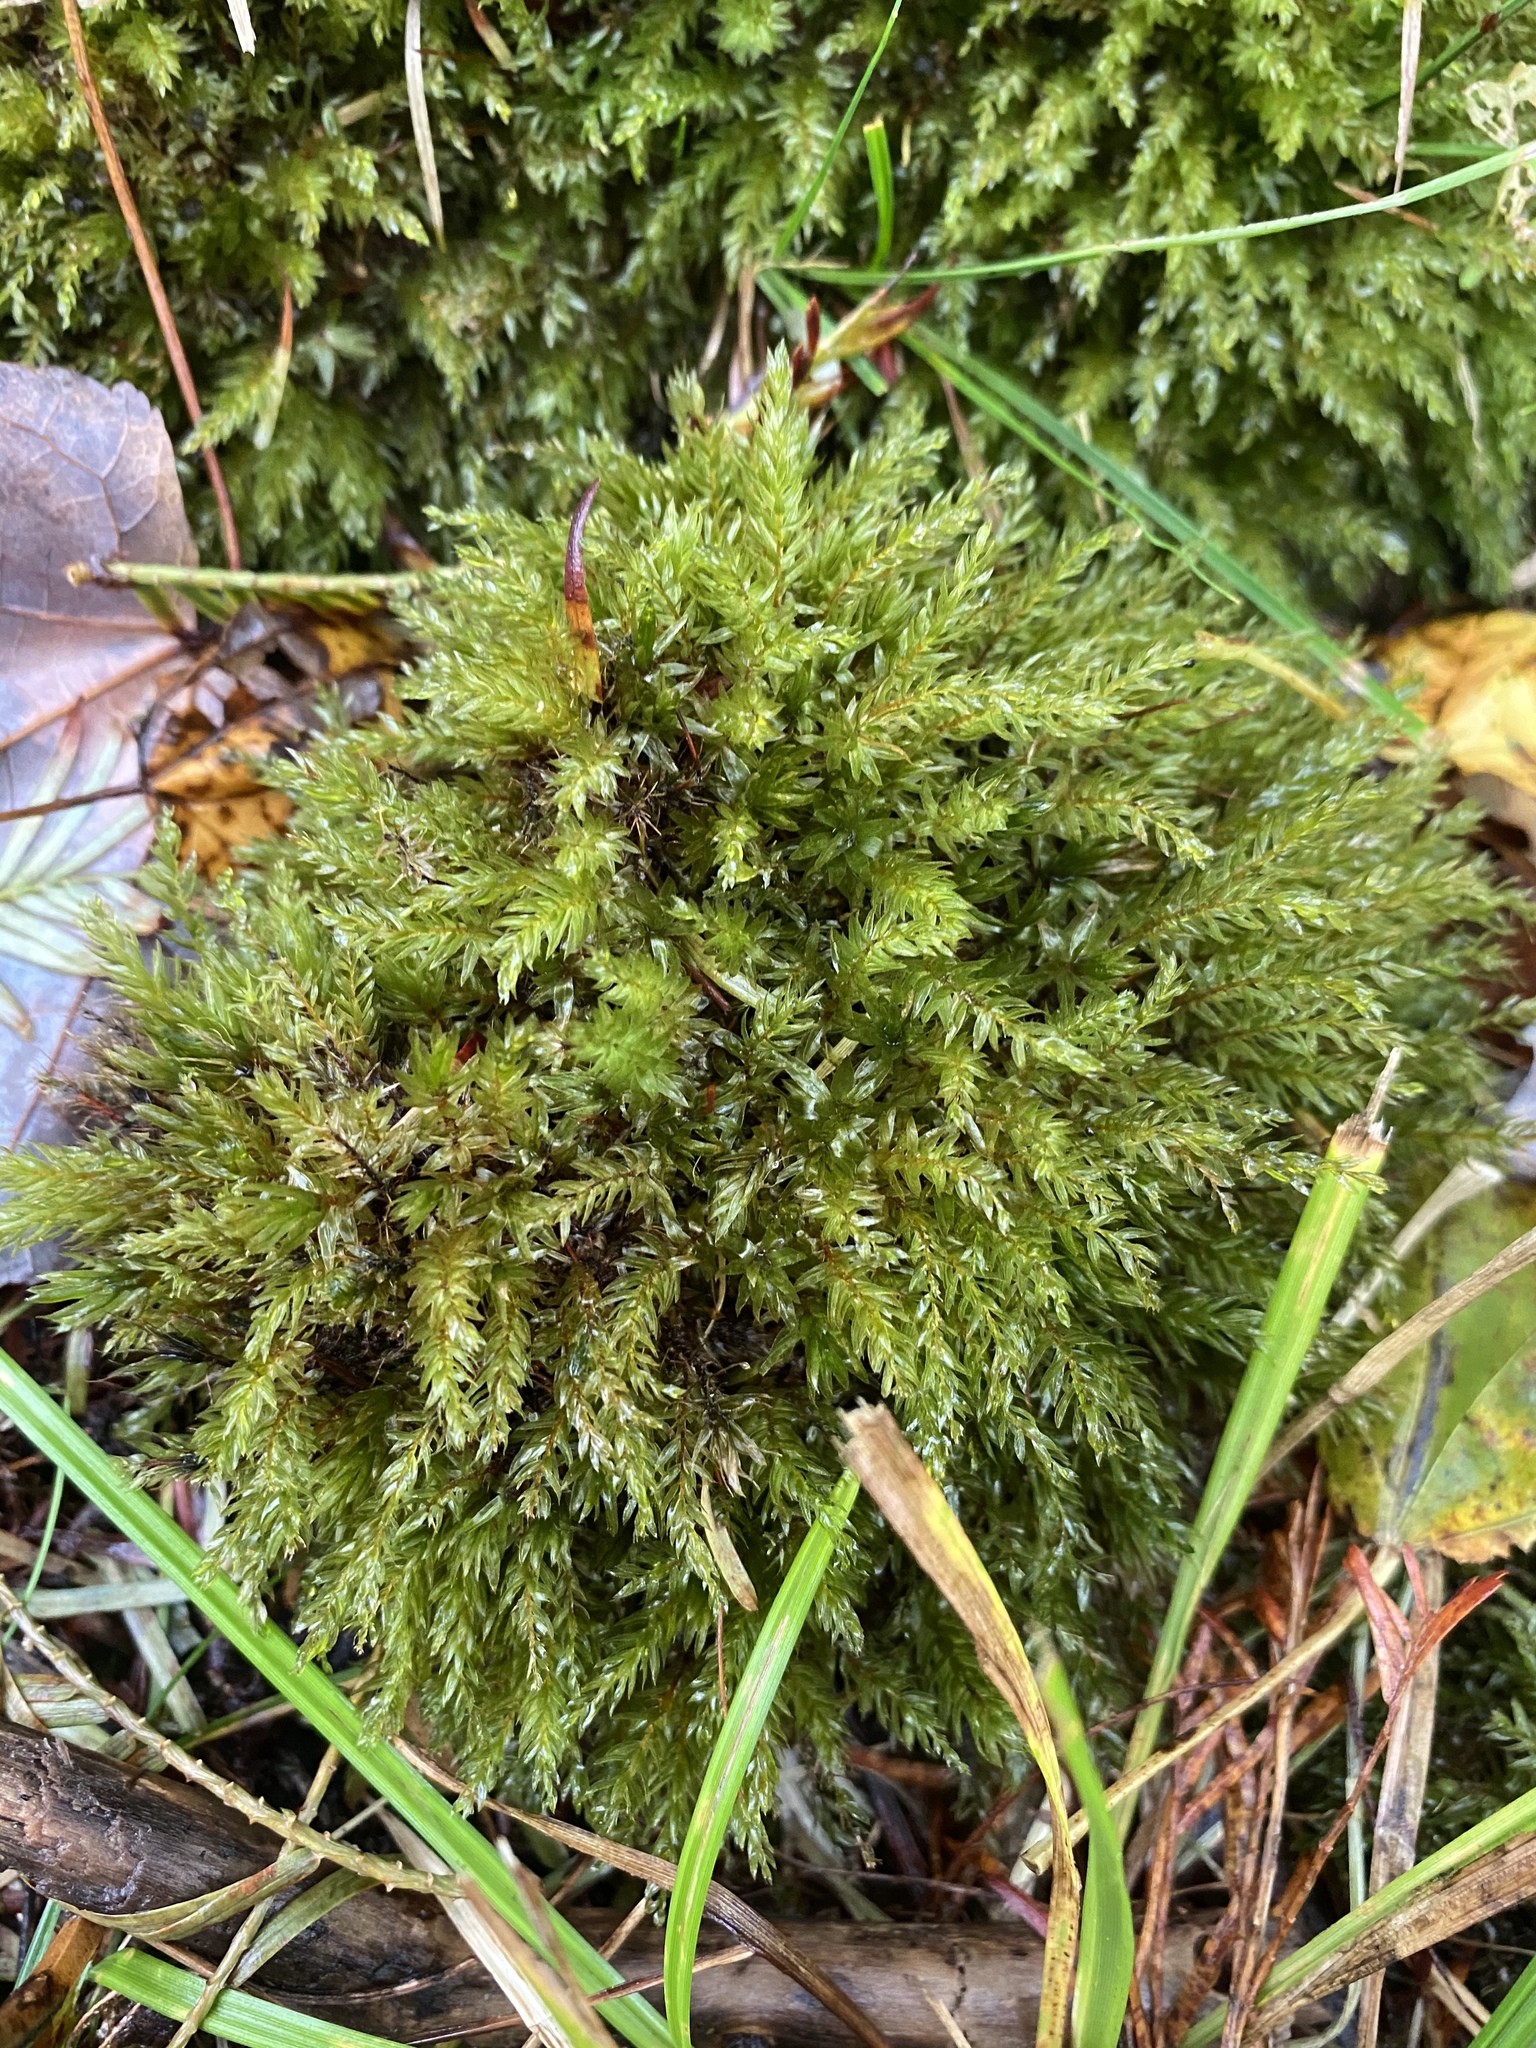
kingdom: Plantae
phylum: Bryophyta
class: Bryopsida
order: Bryales
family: Mniaceae
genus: Mnium
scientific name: Mnium hornum
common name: Swan's-neck leafy moss
